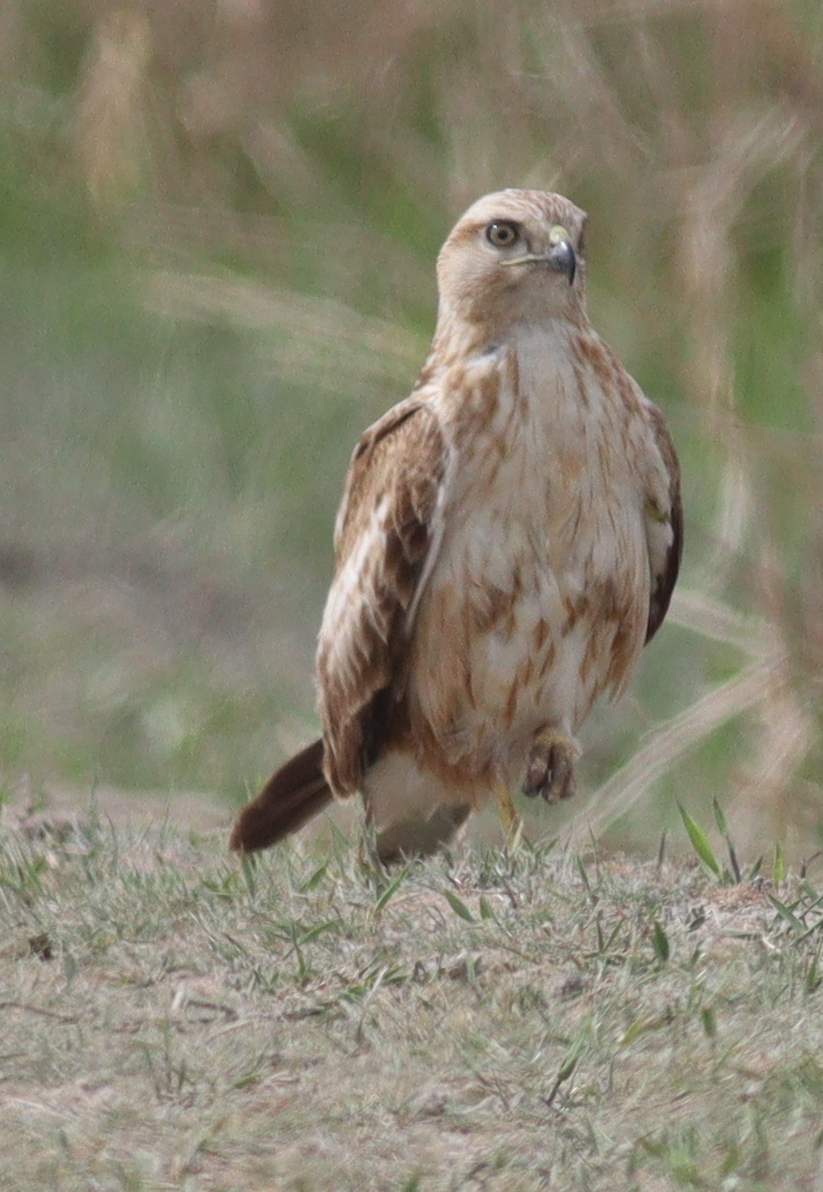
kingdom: Animalia
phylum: Chordata
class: Aves
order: Accipitriformes
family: Accipitridae
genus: Buteo
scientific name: Buteo rufinus
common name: Long-legged buzzard
